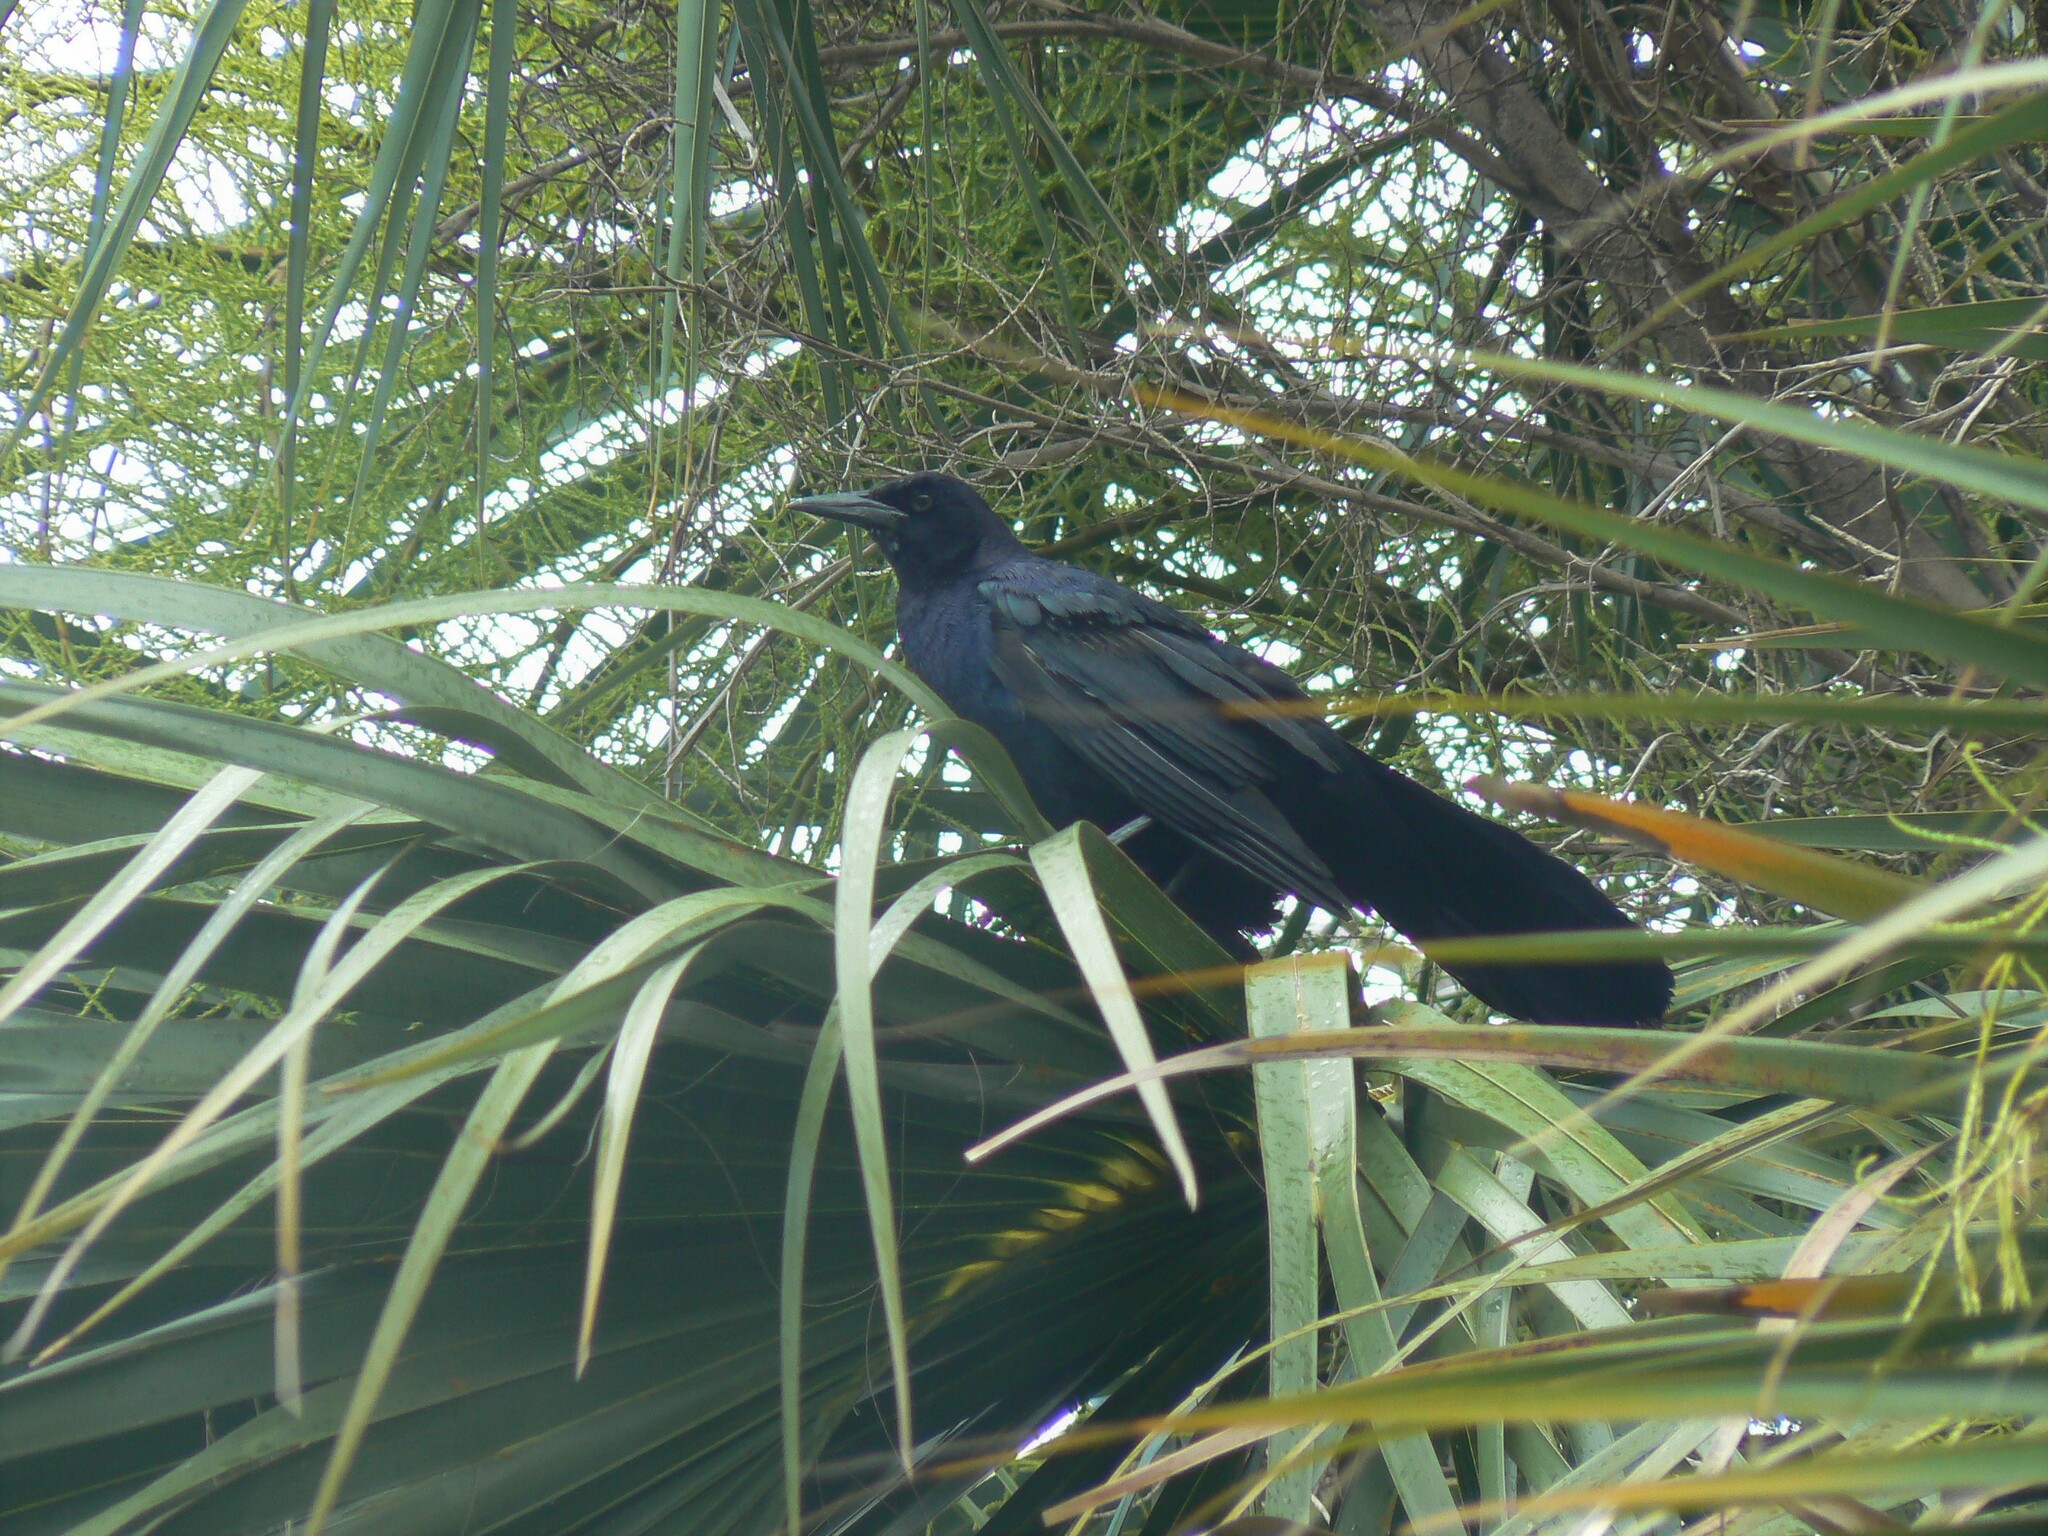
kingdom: Animalia
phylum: Chordata
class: Aves
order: Passeriformes
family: Icteridae
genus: Quiscalus
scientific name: Quiscalus major
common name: Boat-tailed grackle
